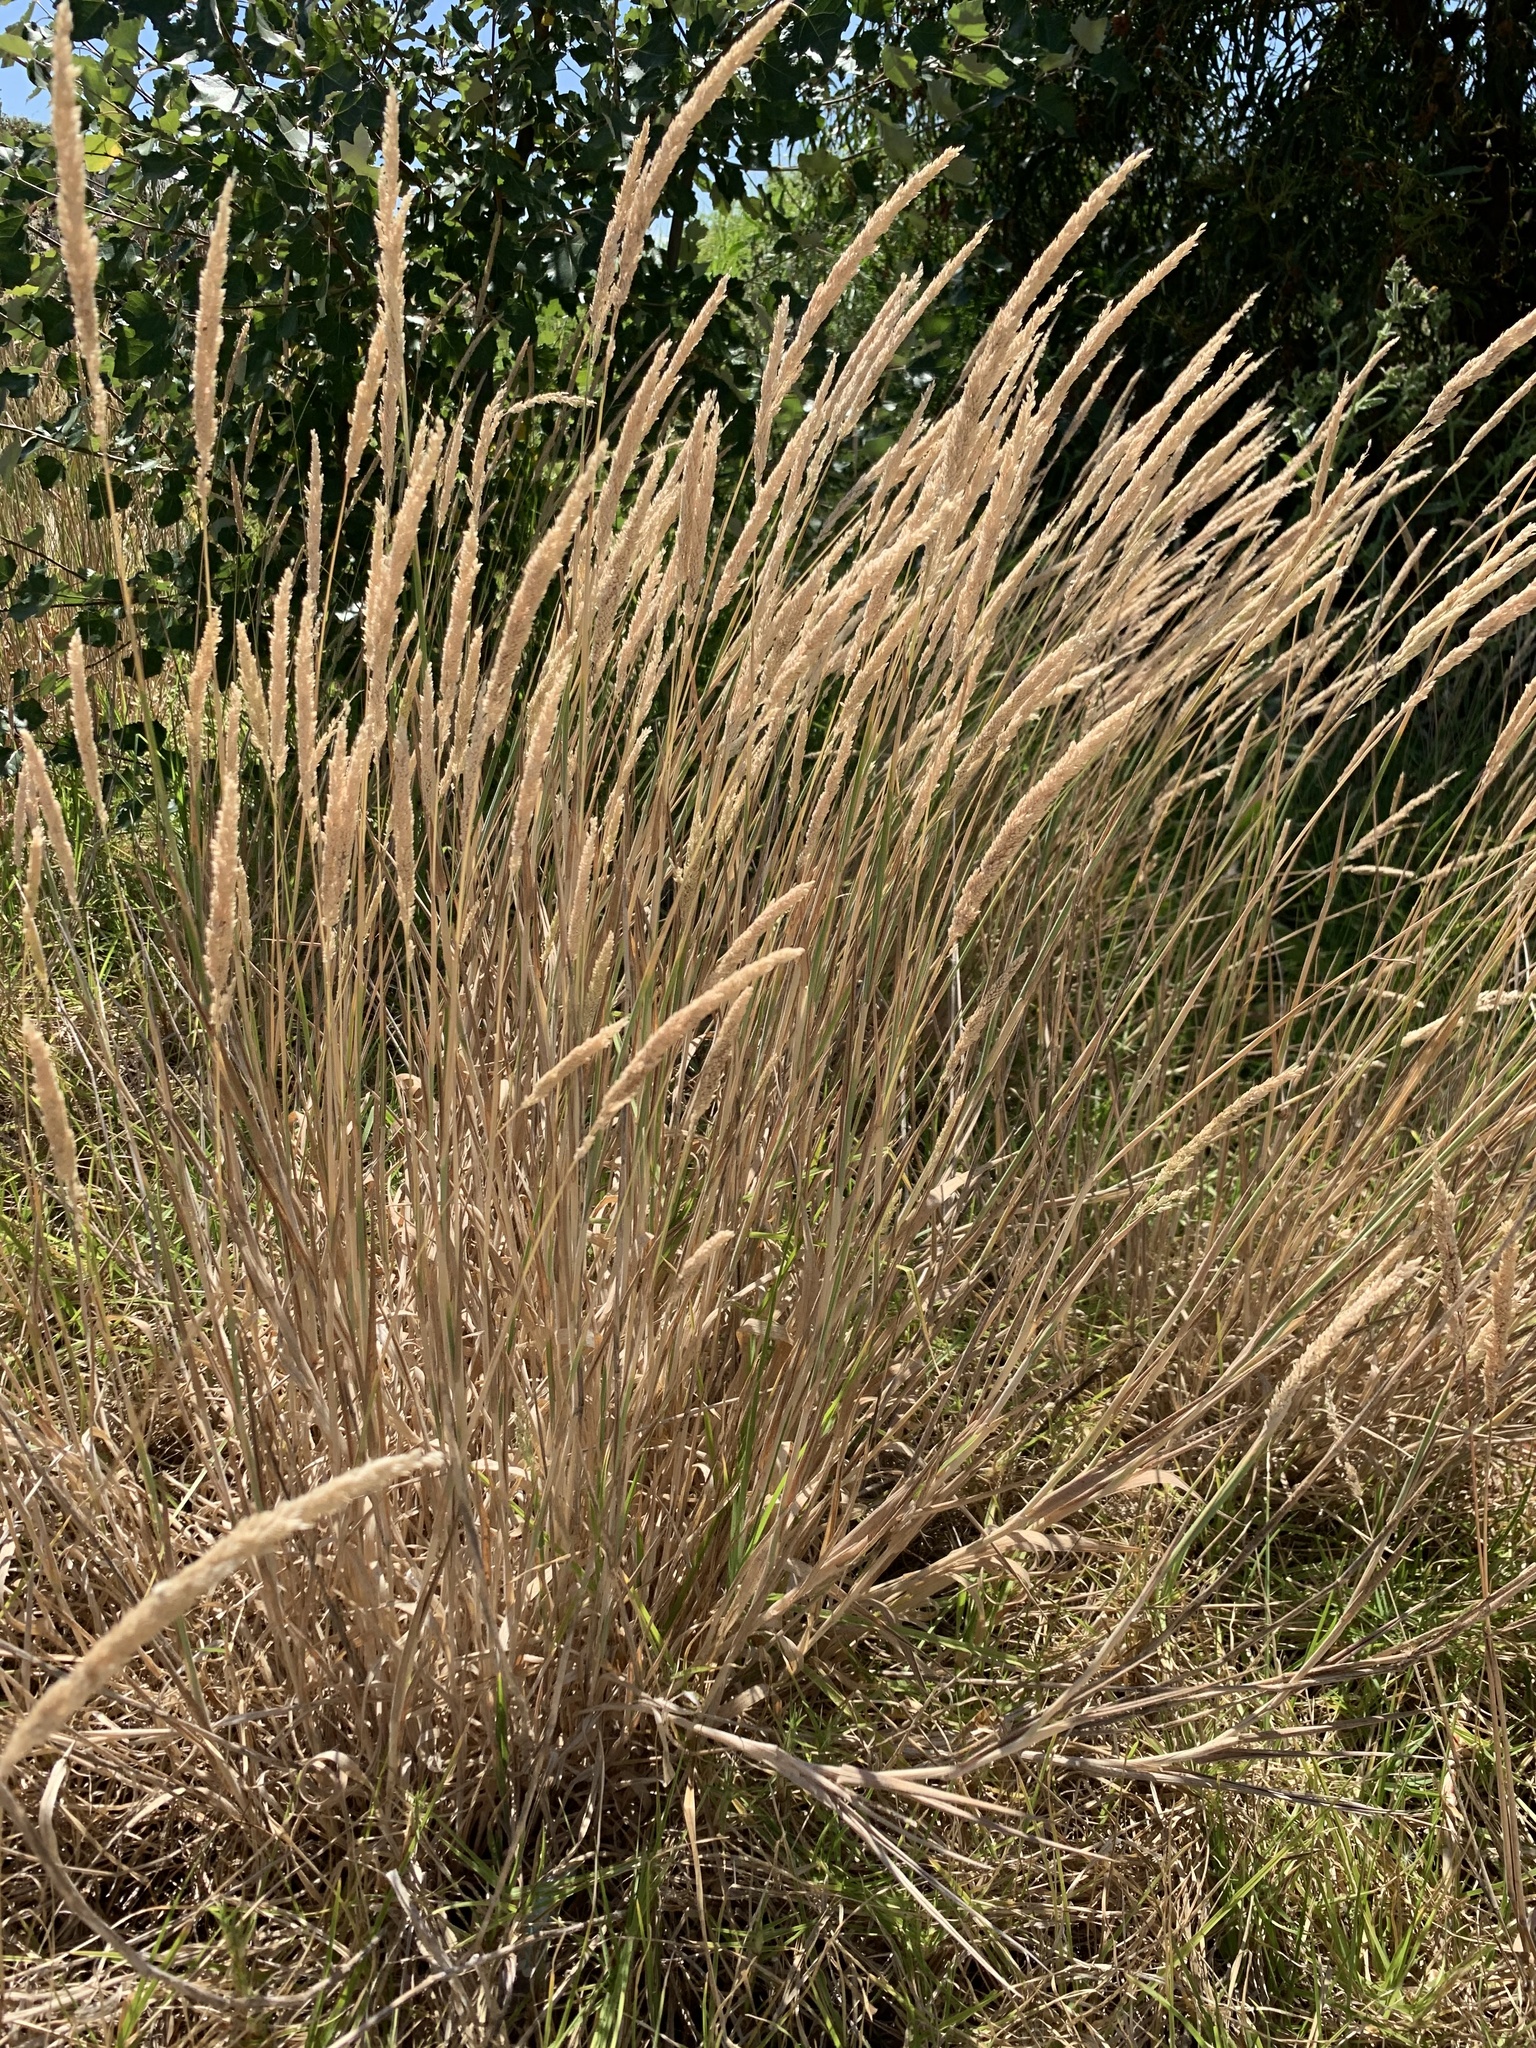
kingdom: Plantae
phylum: Tracheophyta
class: Magnoliopsida
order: Fabales
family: Fabaceae
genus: Acacia
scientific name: Acacia saligna
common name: Orange wattle
